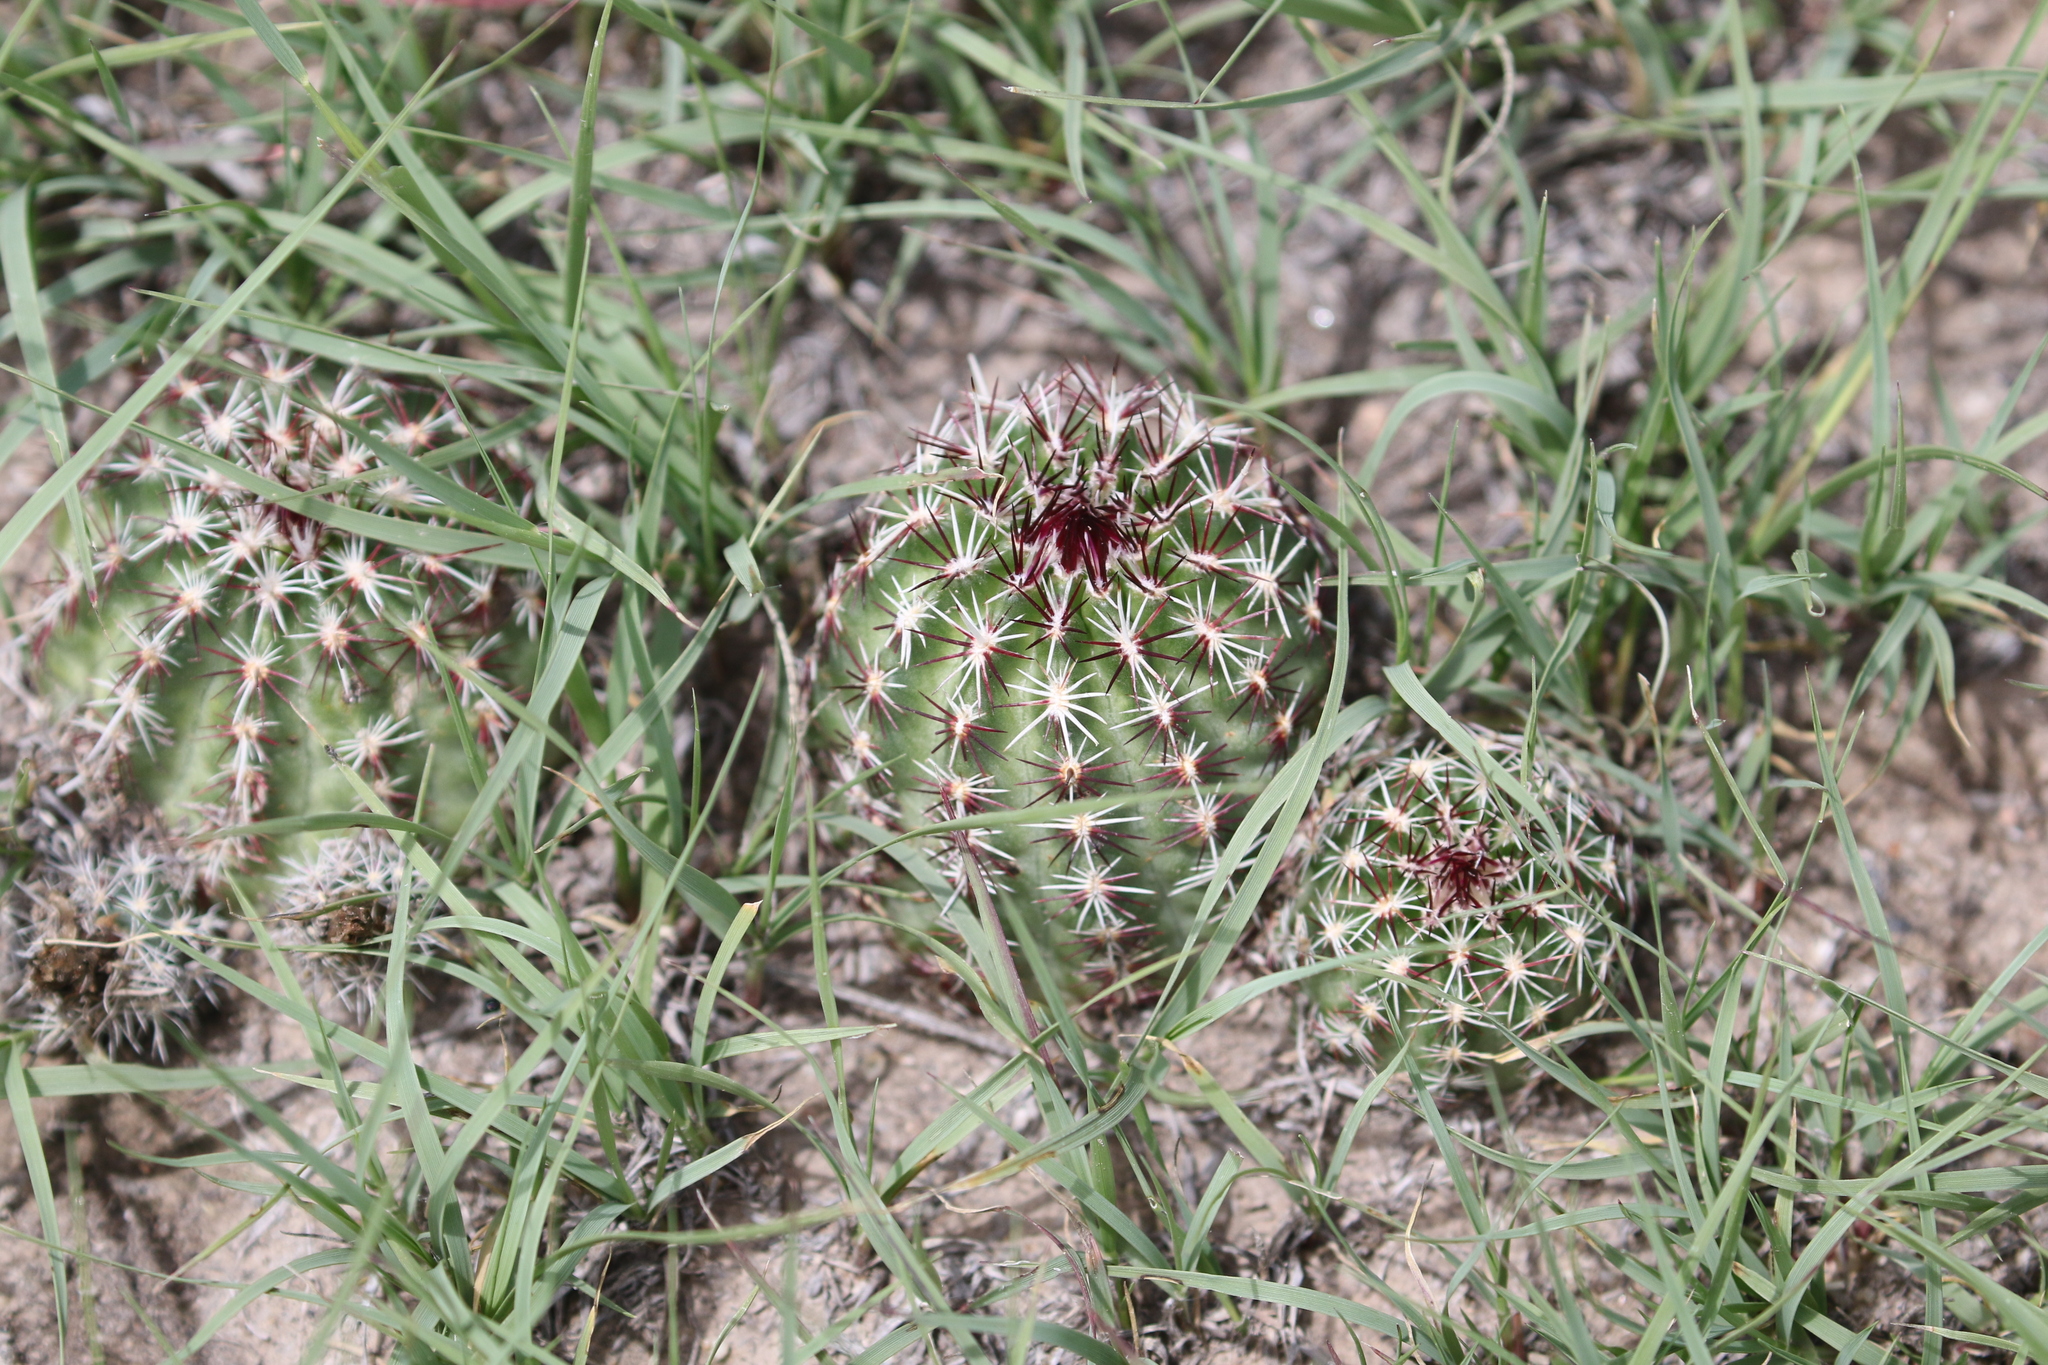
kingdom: Plantae
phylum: Tracheophyta
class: Magnoliopsida
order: Caryophyllales
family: Cactaceae
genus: Echinocereus
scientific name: Echinocereus viridiflorus
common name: Nylon hedgehog cactus
